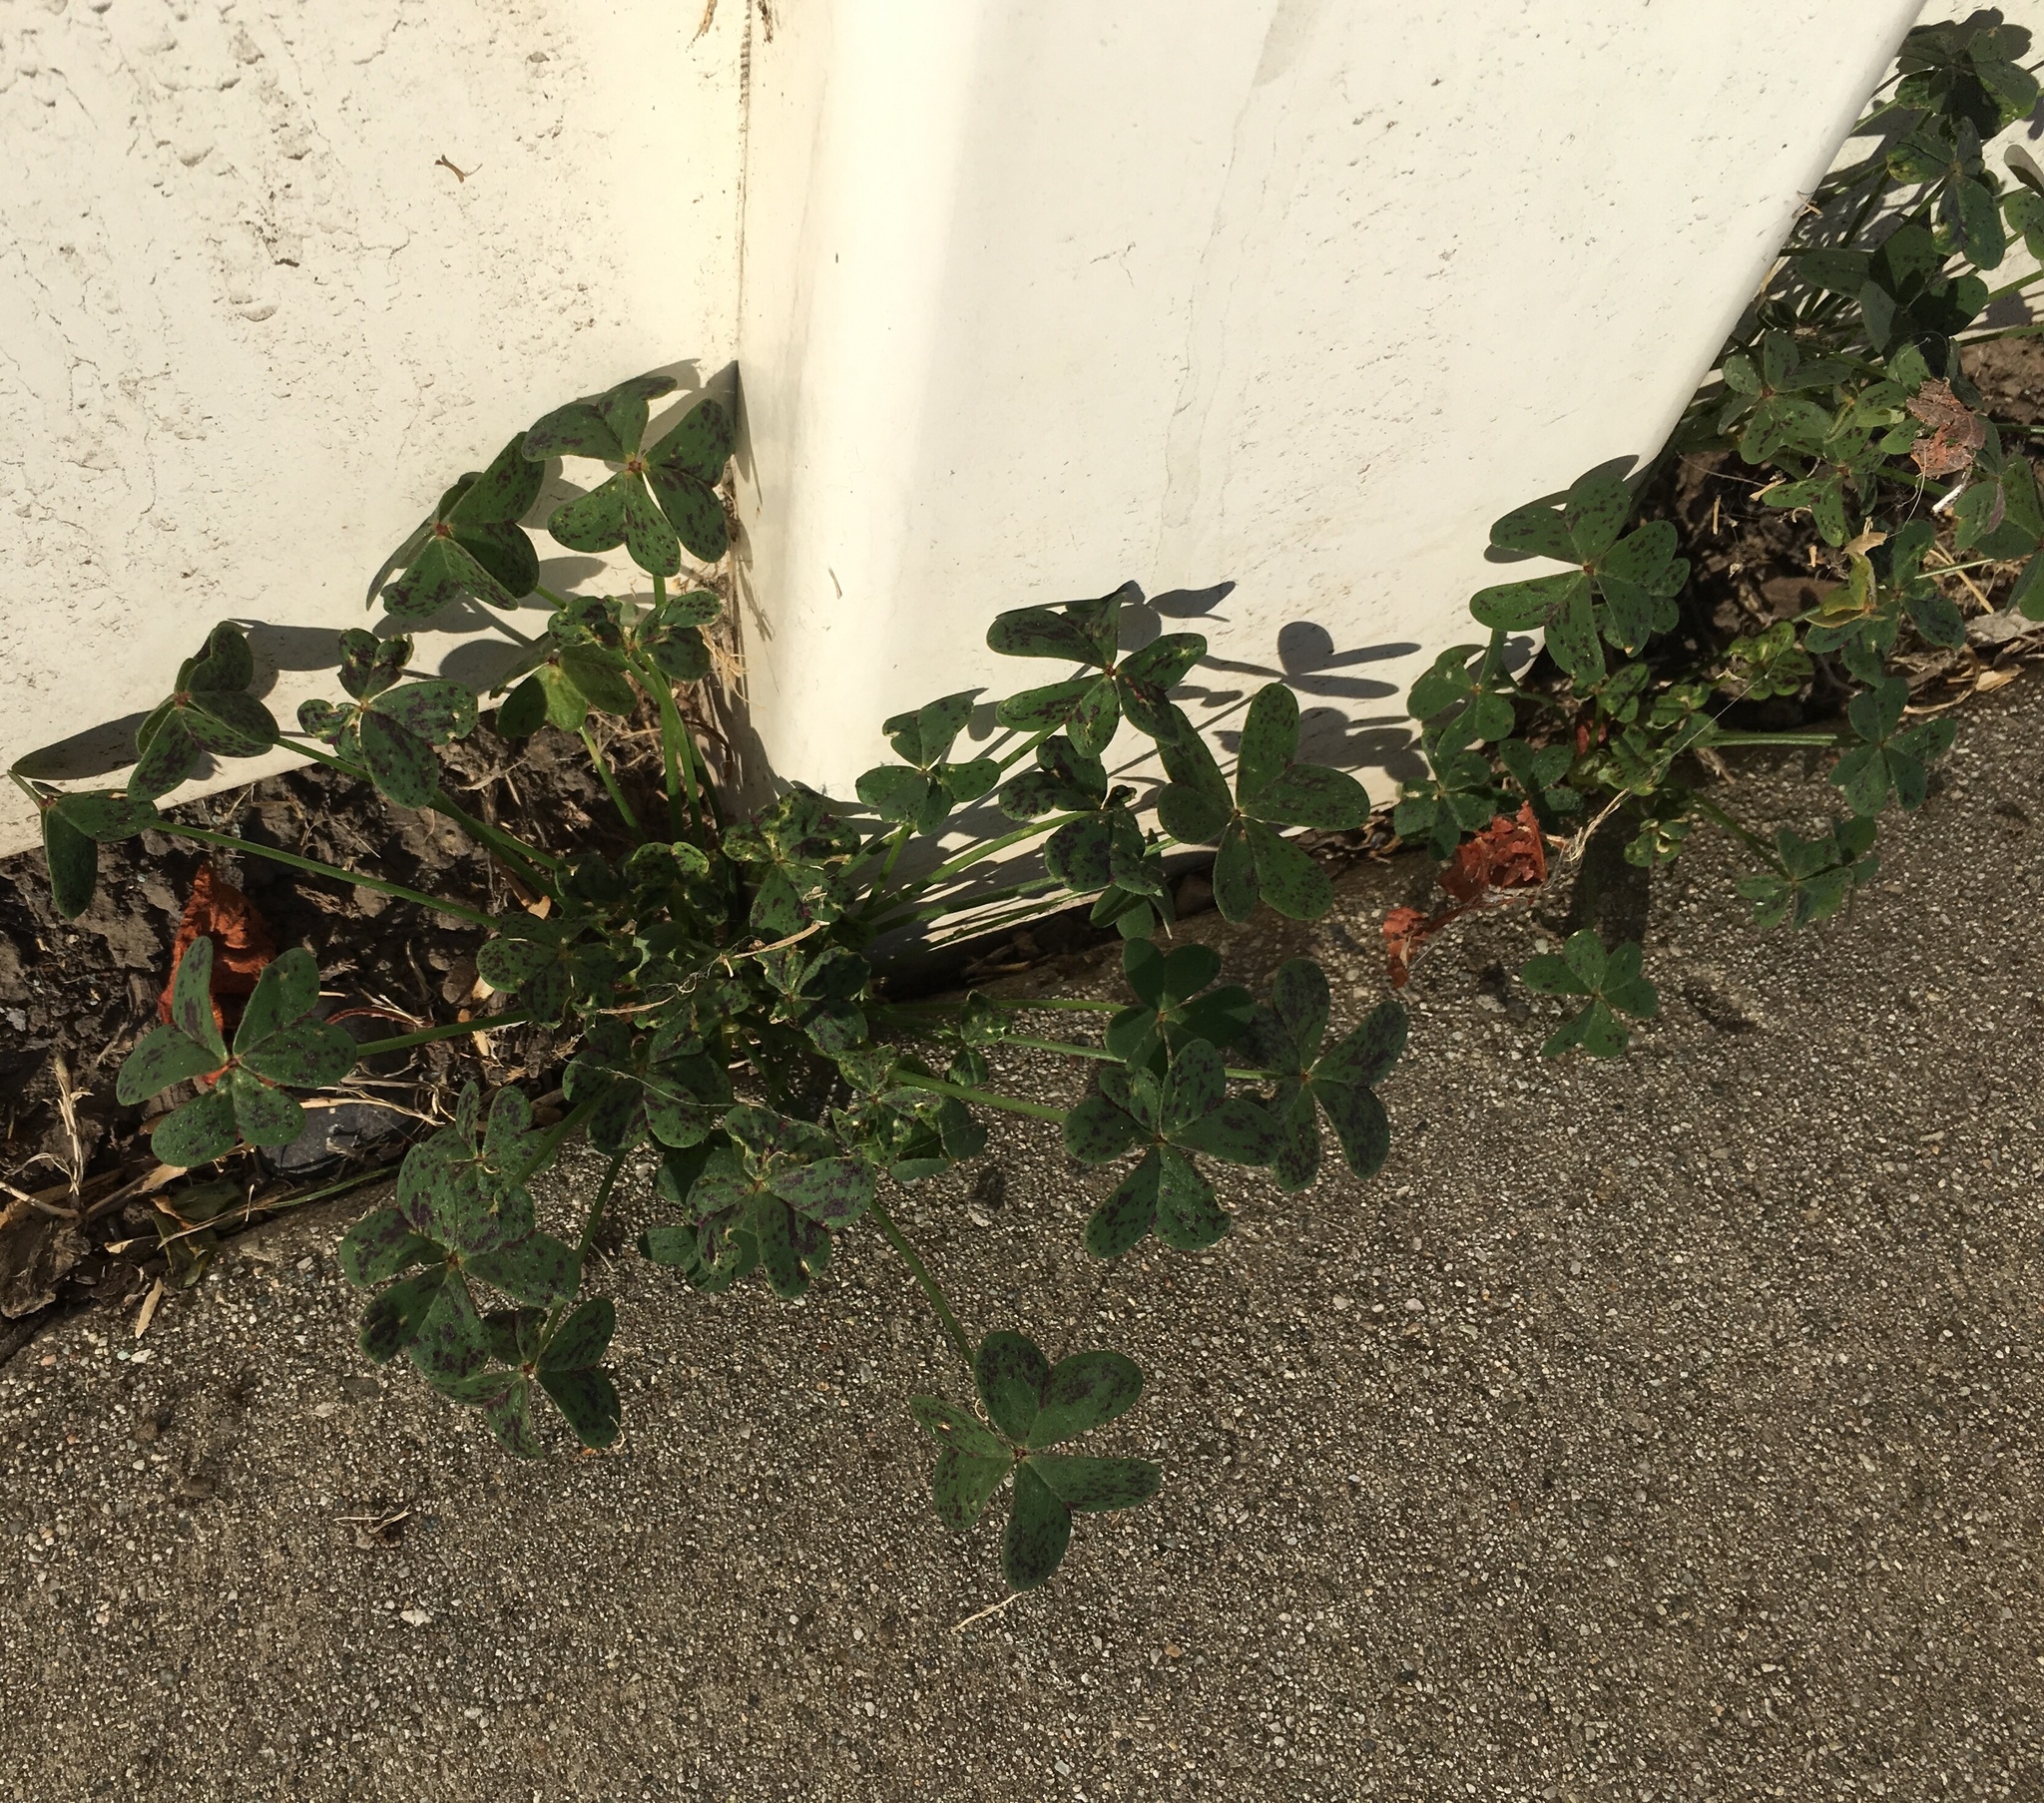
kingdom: Plantae
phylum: Tracheophyta
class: Magnoliopsida
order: Oxalidales
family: Oxalidaceae
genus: Oxalis
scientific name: Oxalis pes-caprae
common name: Bermuda-buttercup
